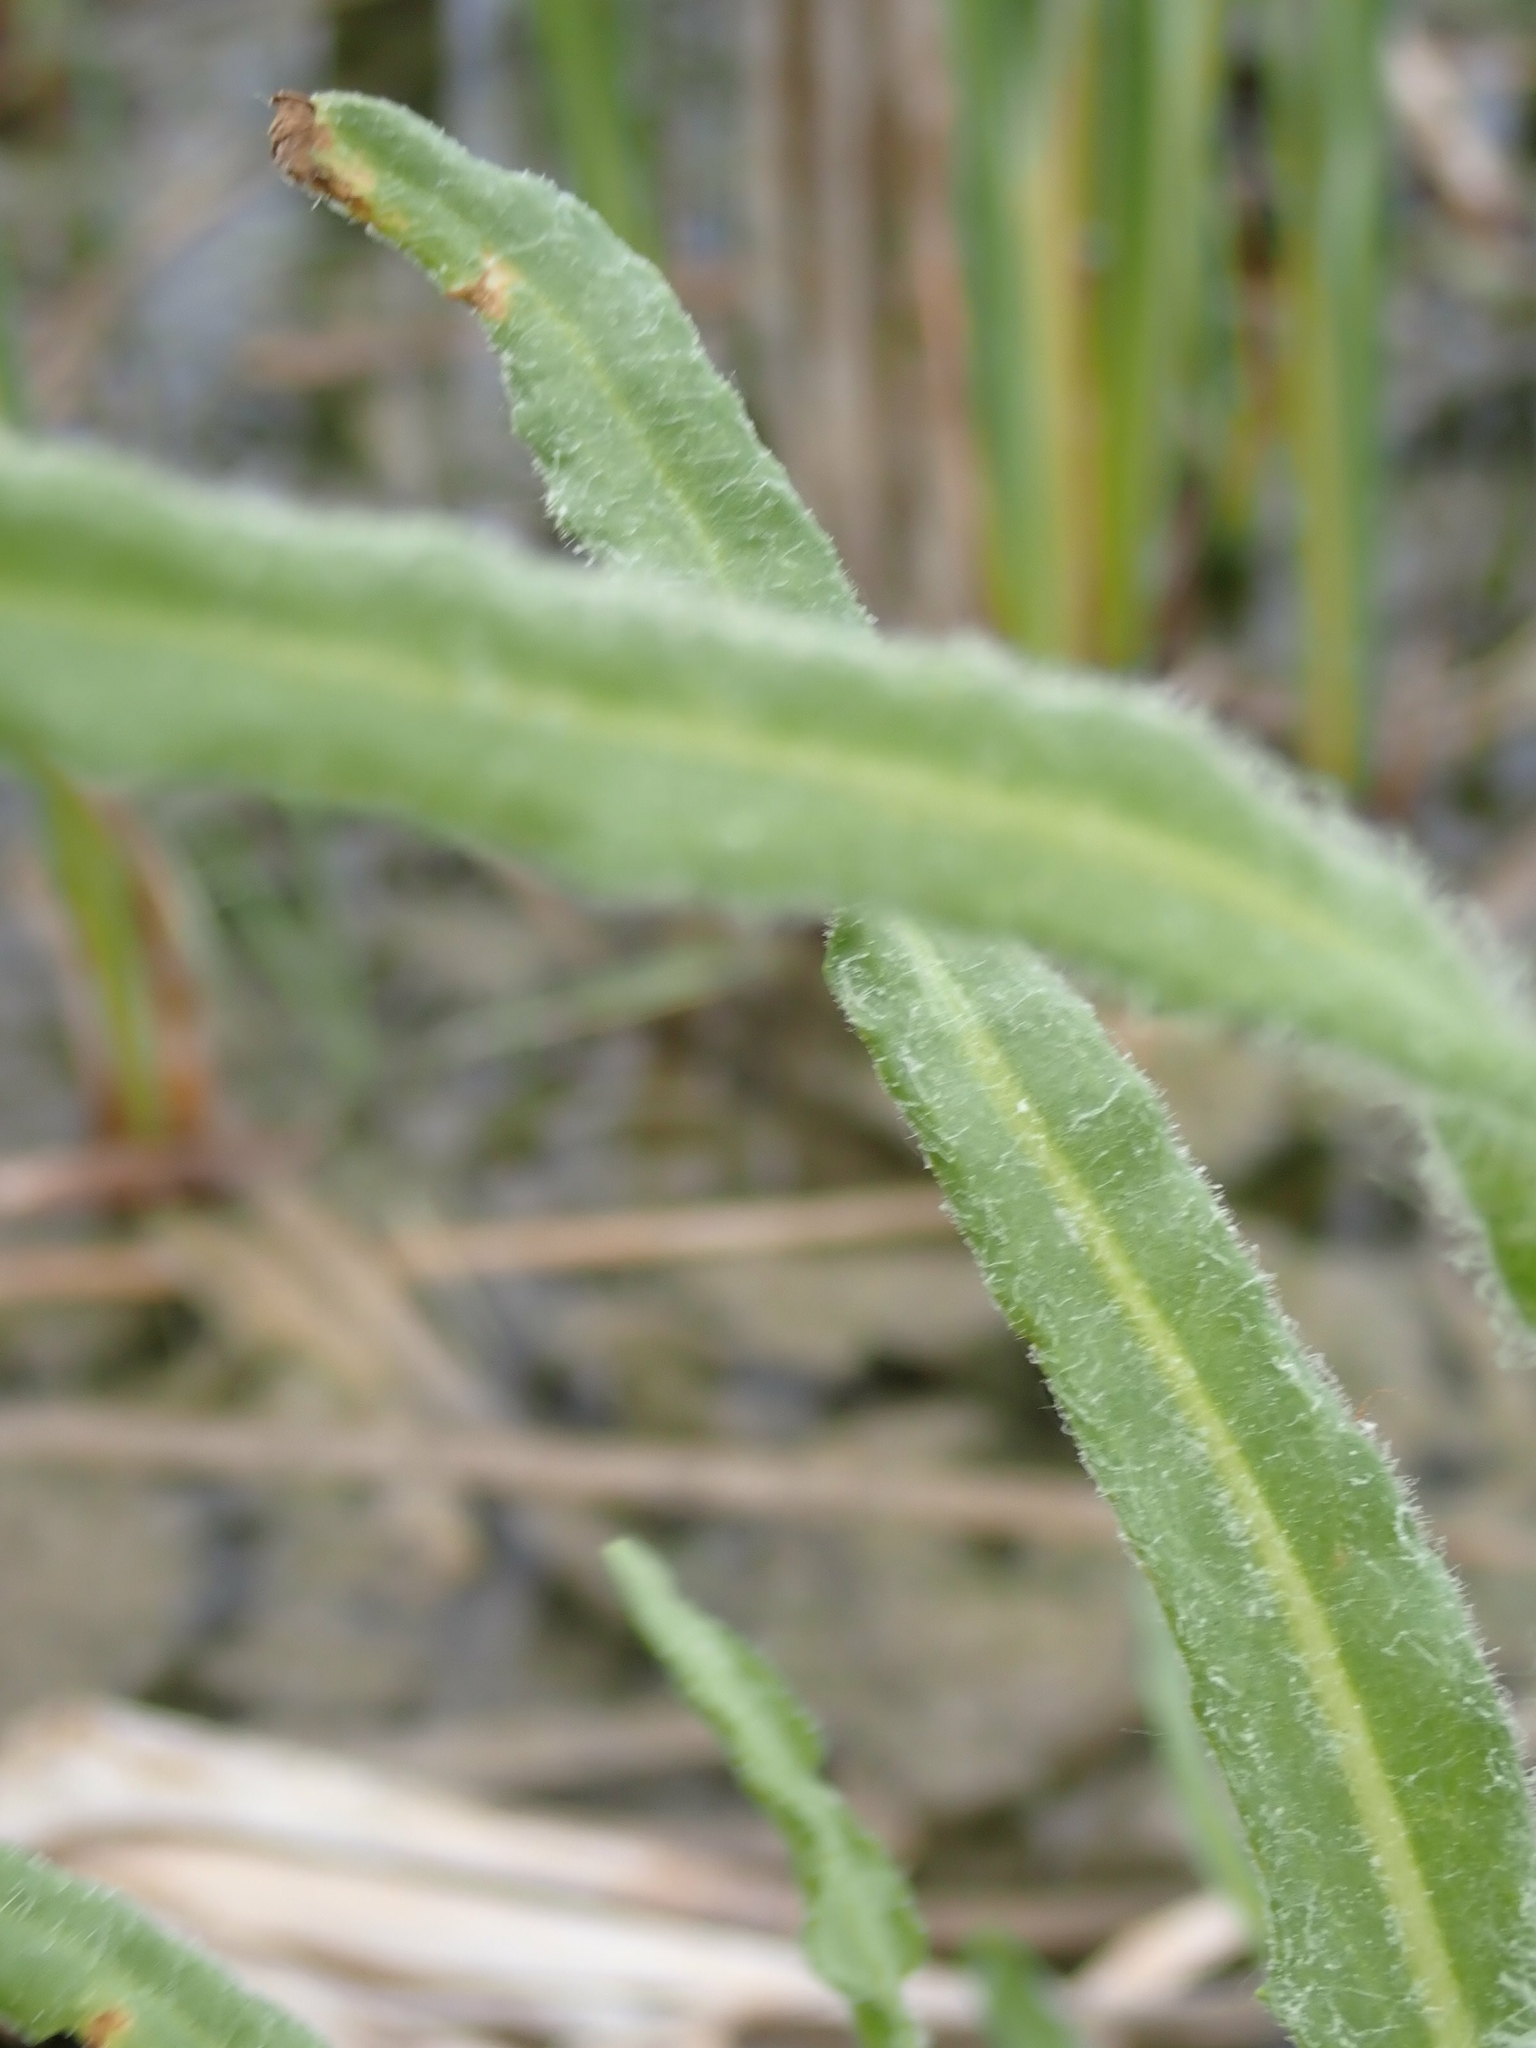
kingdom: Plantae
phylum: Tracheophyta
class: Magnoliopsida
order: Asterales
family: Asteraceae
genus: Tephroseris
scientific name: Tephroseris palustris
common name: Marsh fleawort
